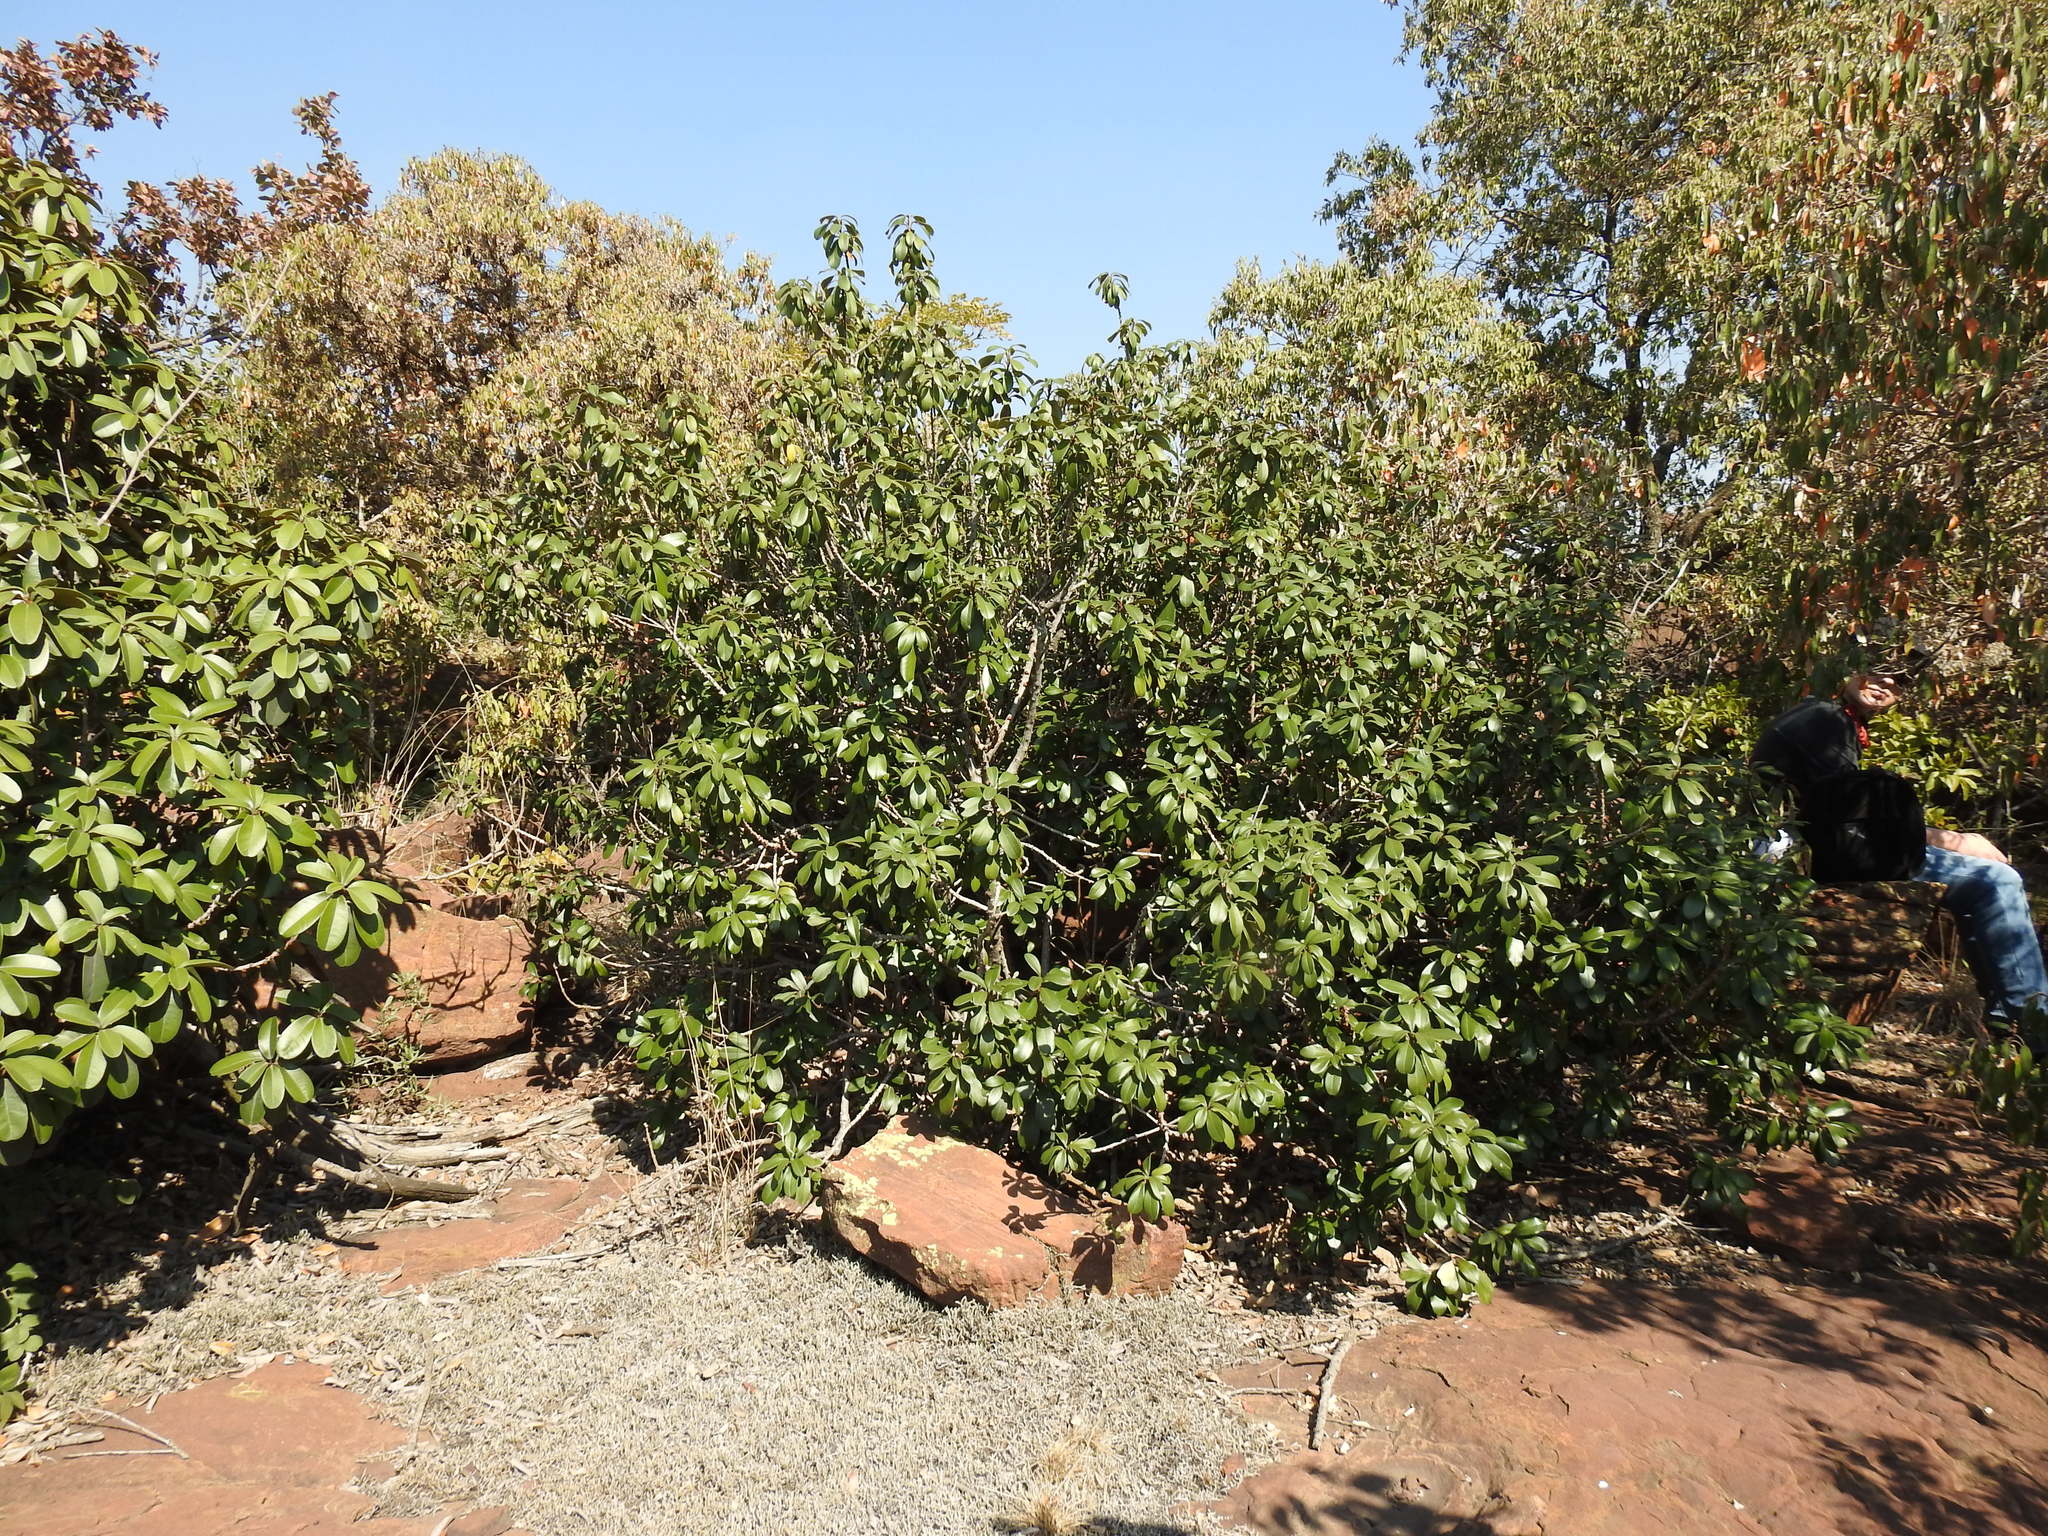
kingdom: Plantae
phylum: Tracheophyta
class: Magnoliopsida
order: Ericales
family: Sapotaceae
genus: Englerophytum
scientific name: Englerophytum magalismontanum
